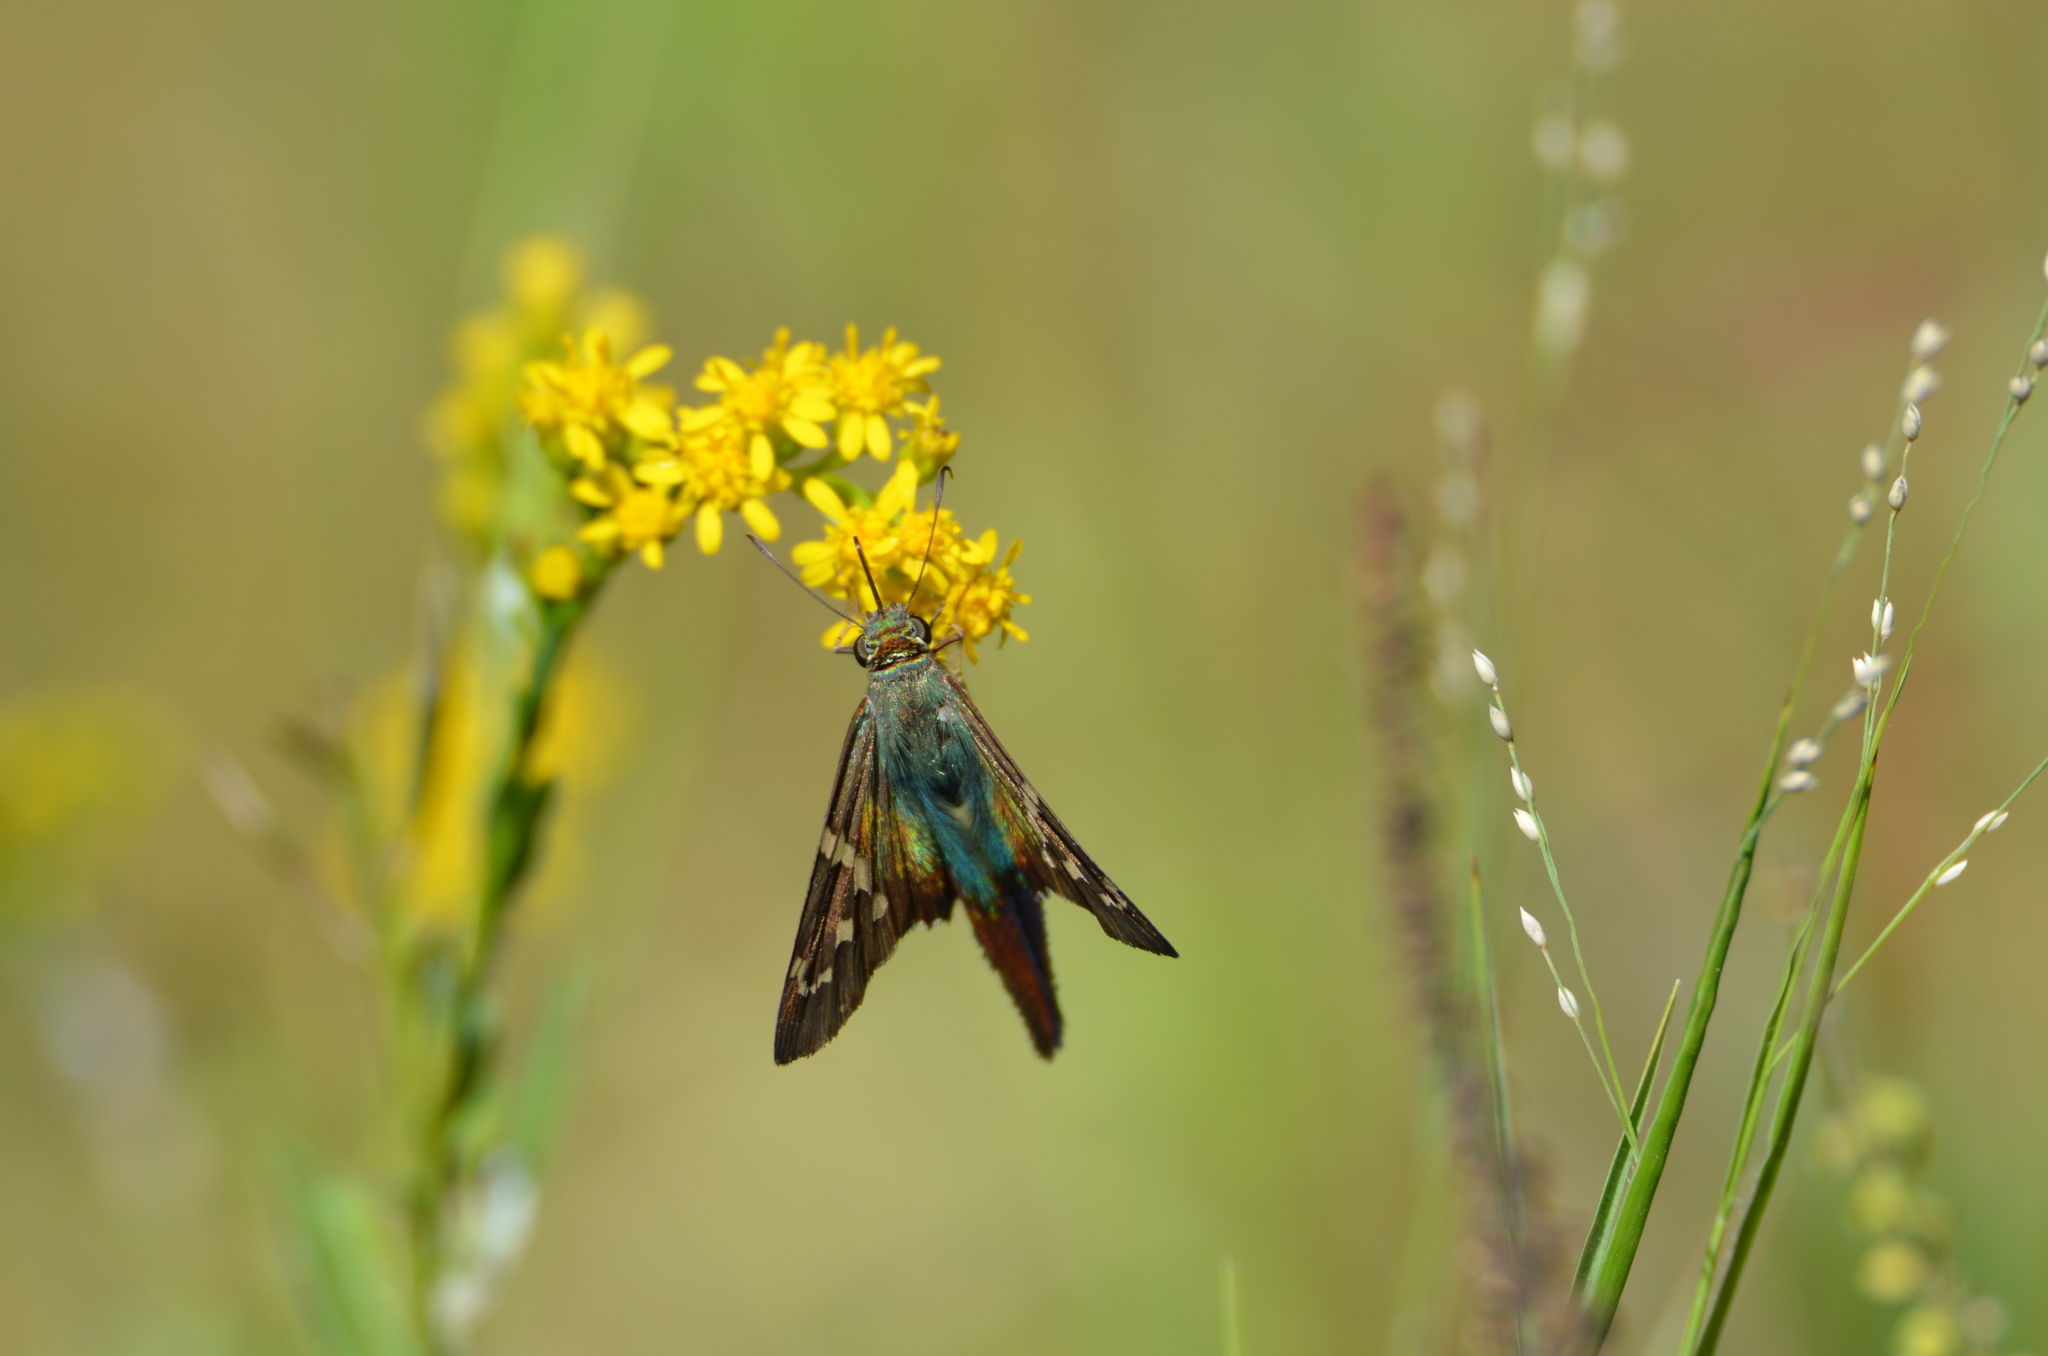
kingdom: Animalia
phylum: Arthropoda
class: Insecta
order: Lepidoptera
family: Hesperiidae
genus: Urbanus
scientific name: Urbanus proteus
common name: Long-tailed skipper
